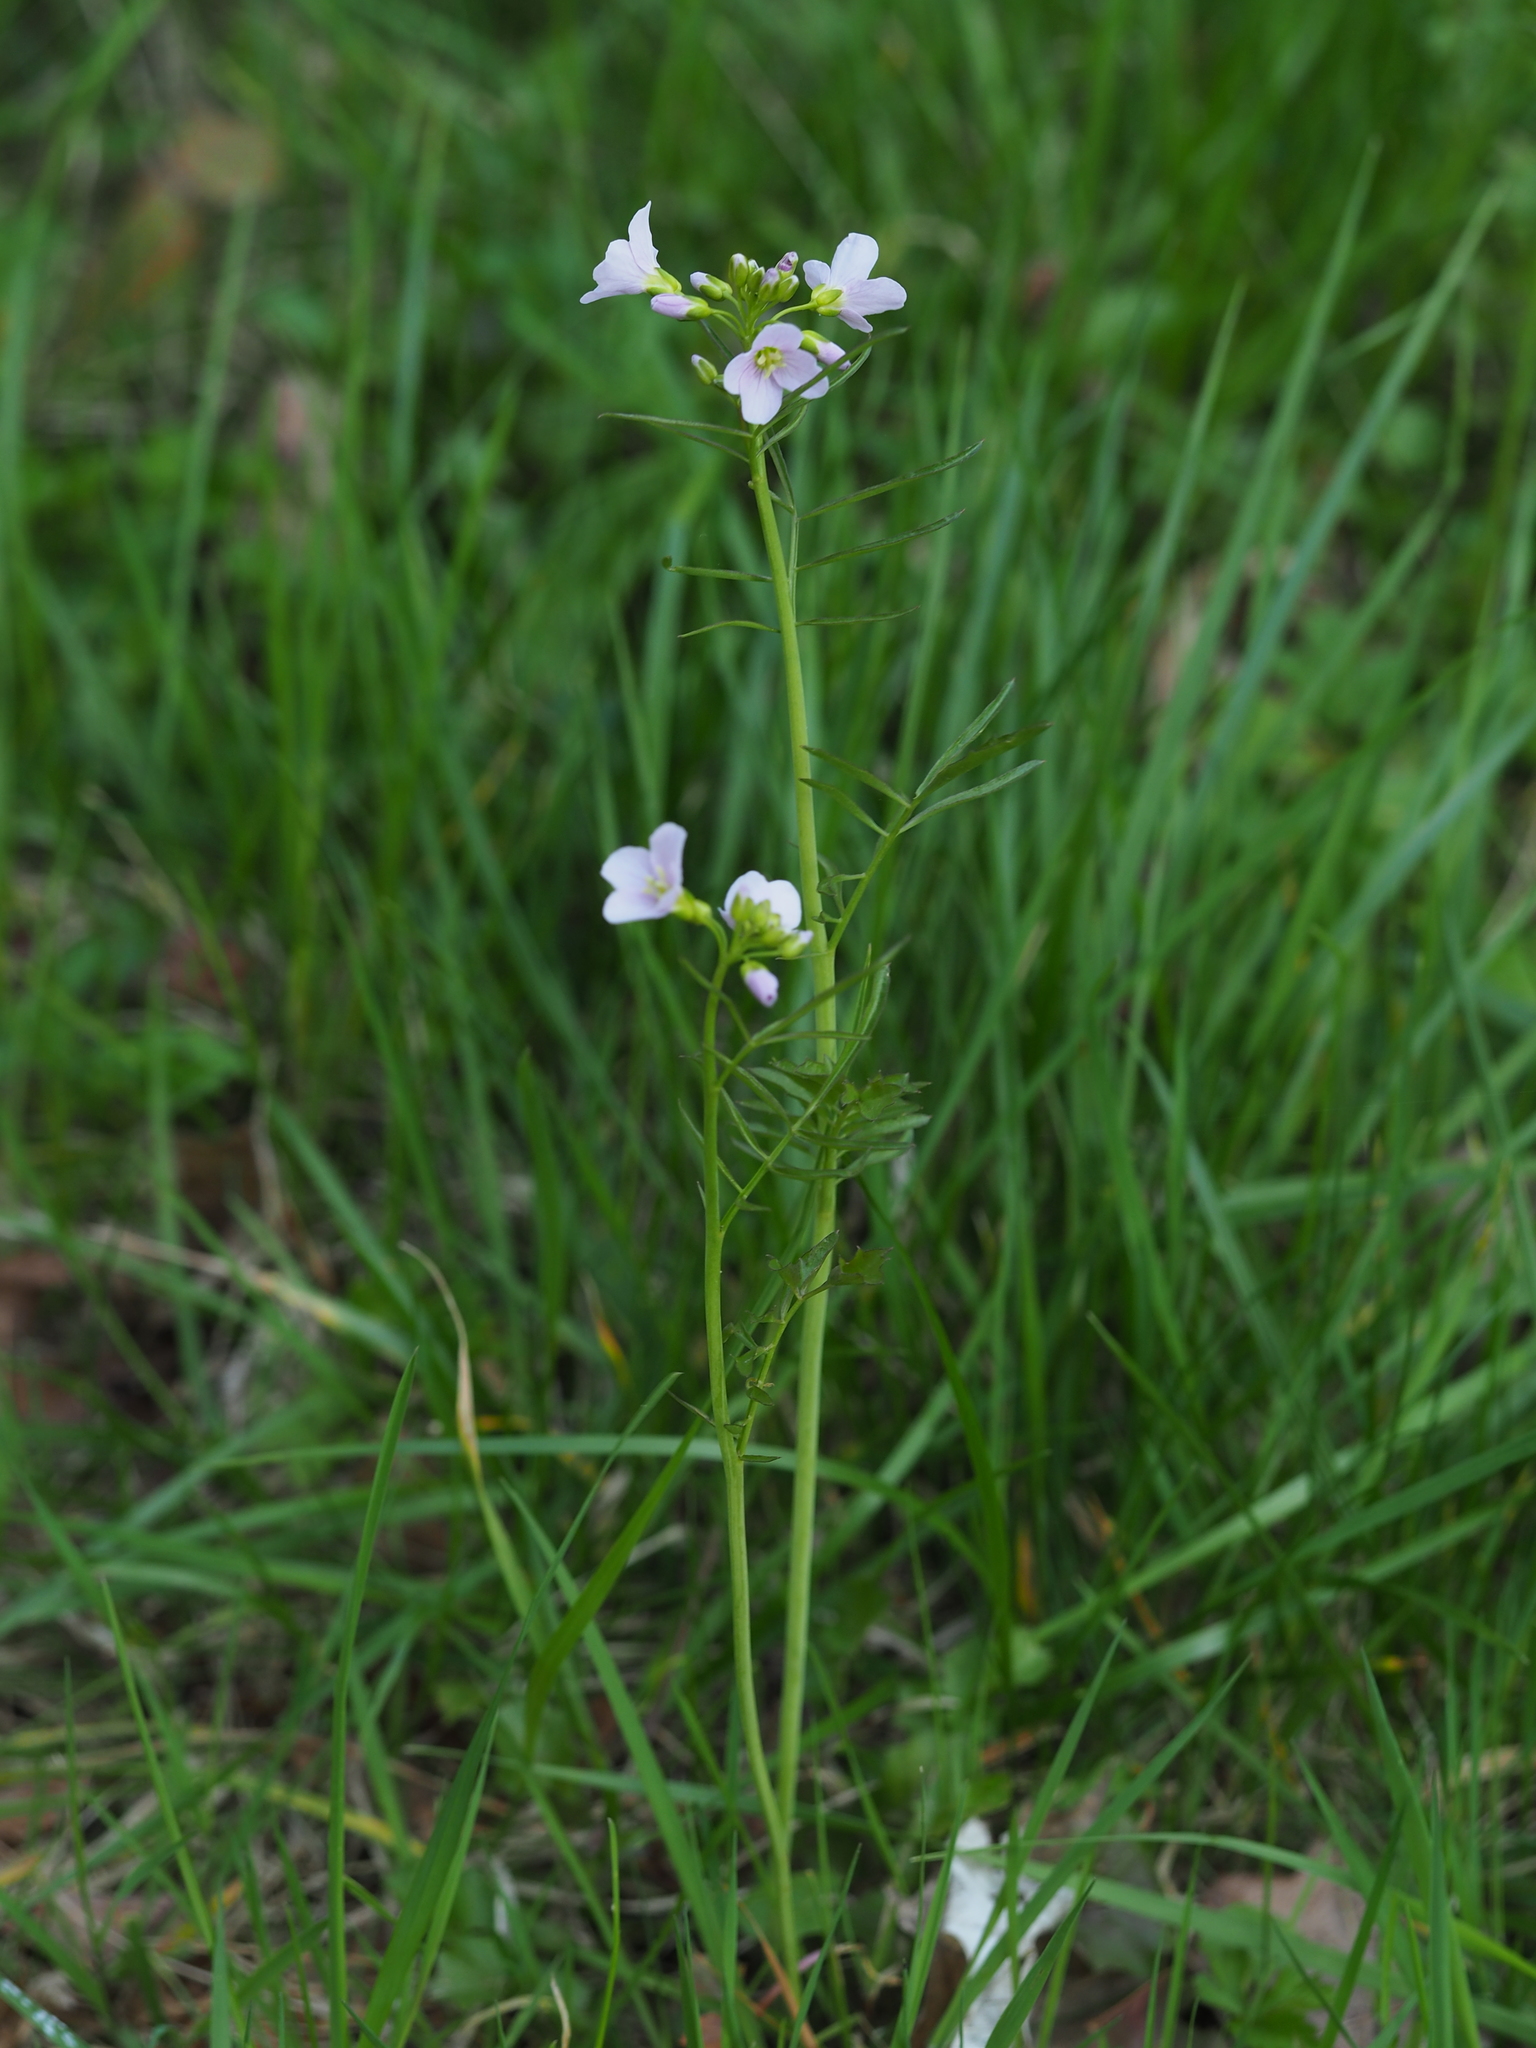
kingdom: Plantae
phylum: Tracheophyta
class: Magnoliopsida
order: Brassicales
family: Brassicaceae
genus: Cardamine
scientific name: Cardamine pratensis
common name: Cuckoo flower
